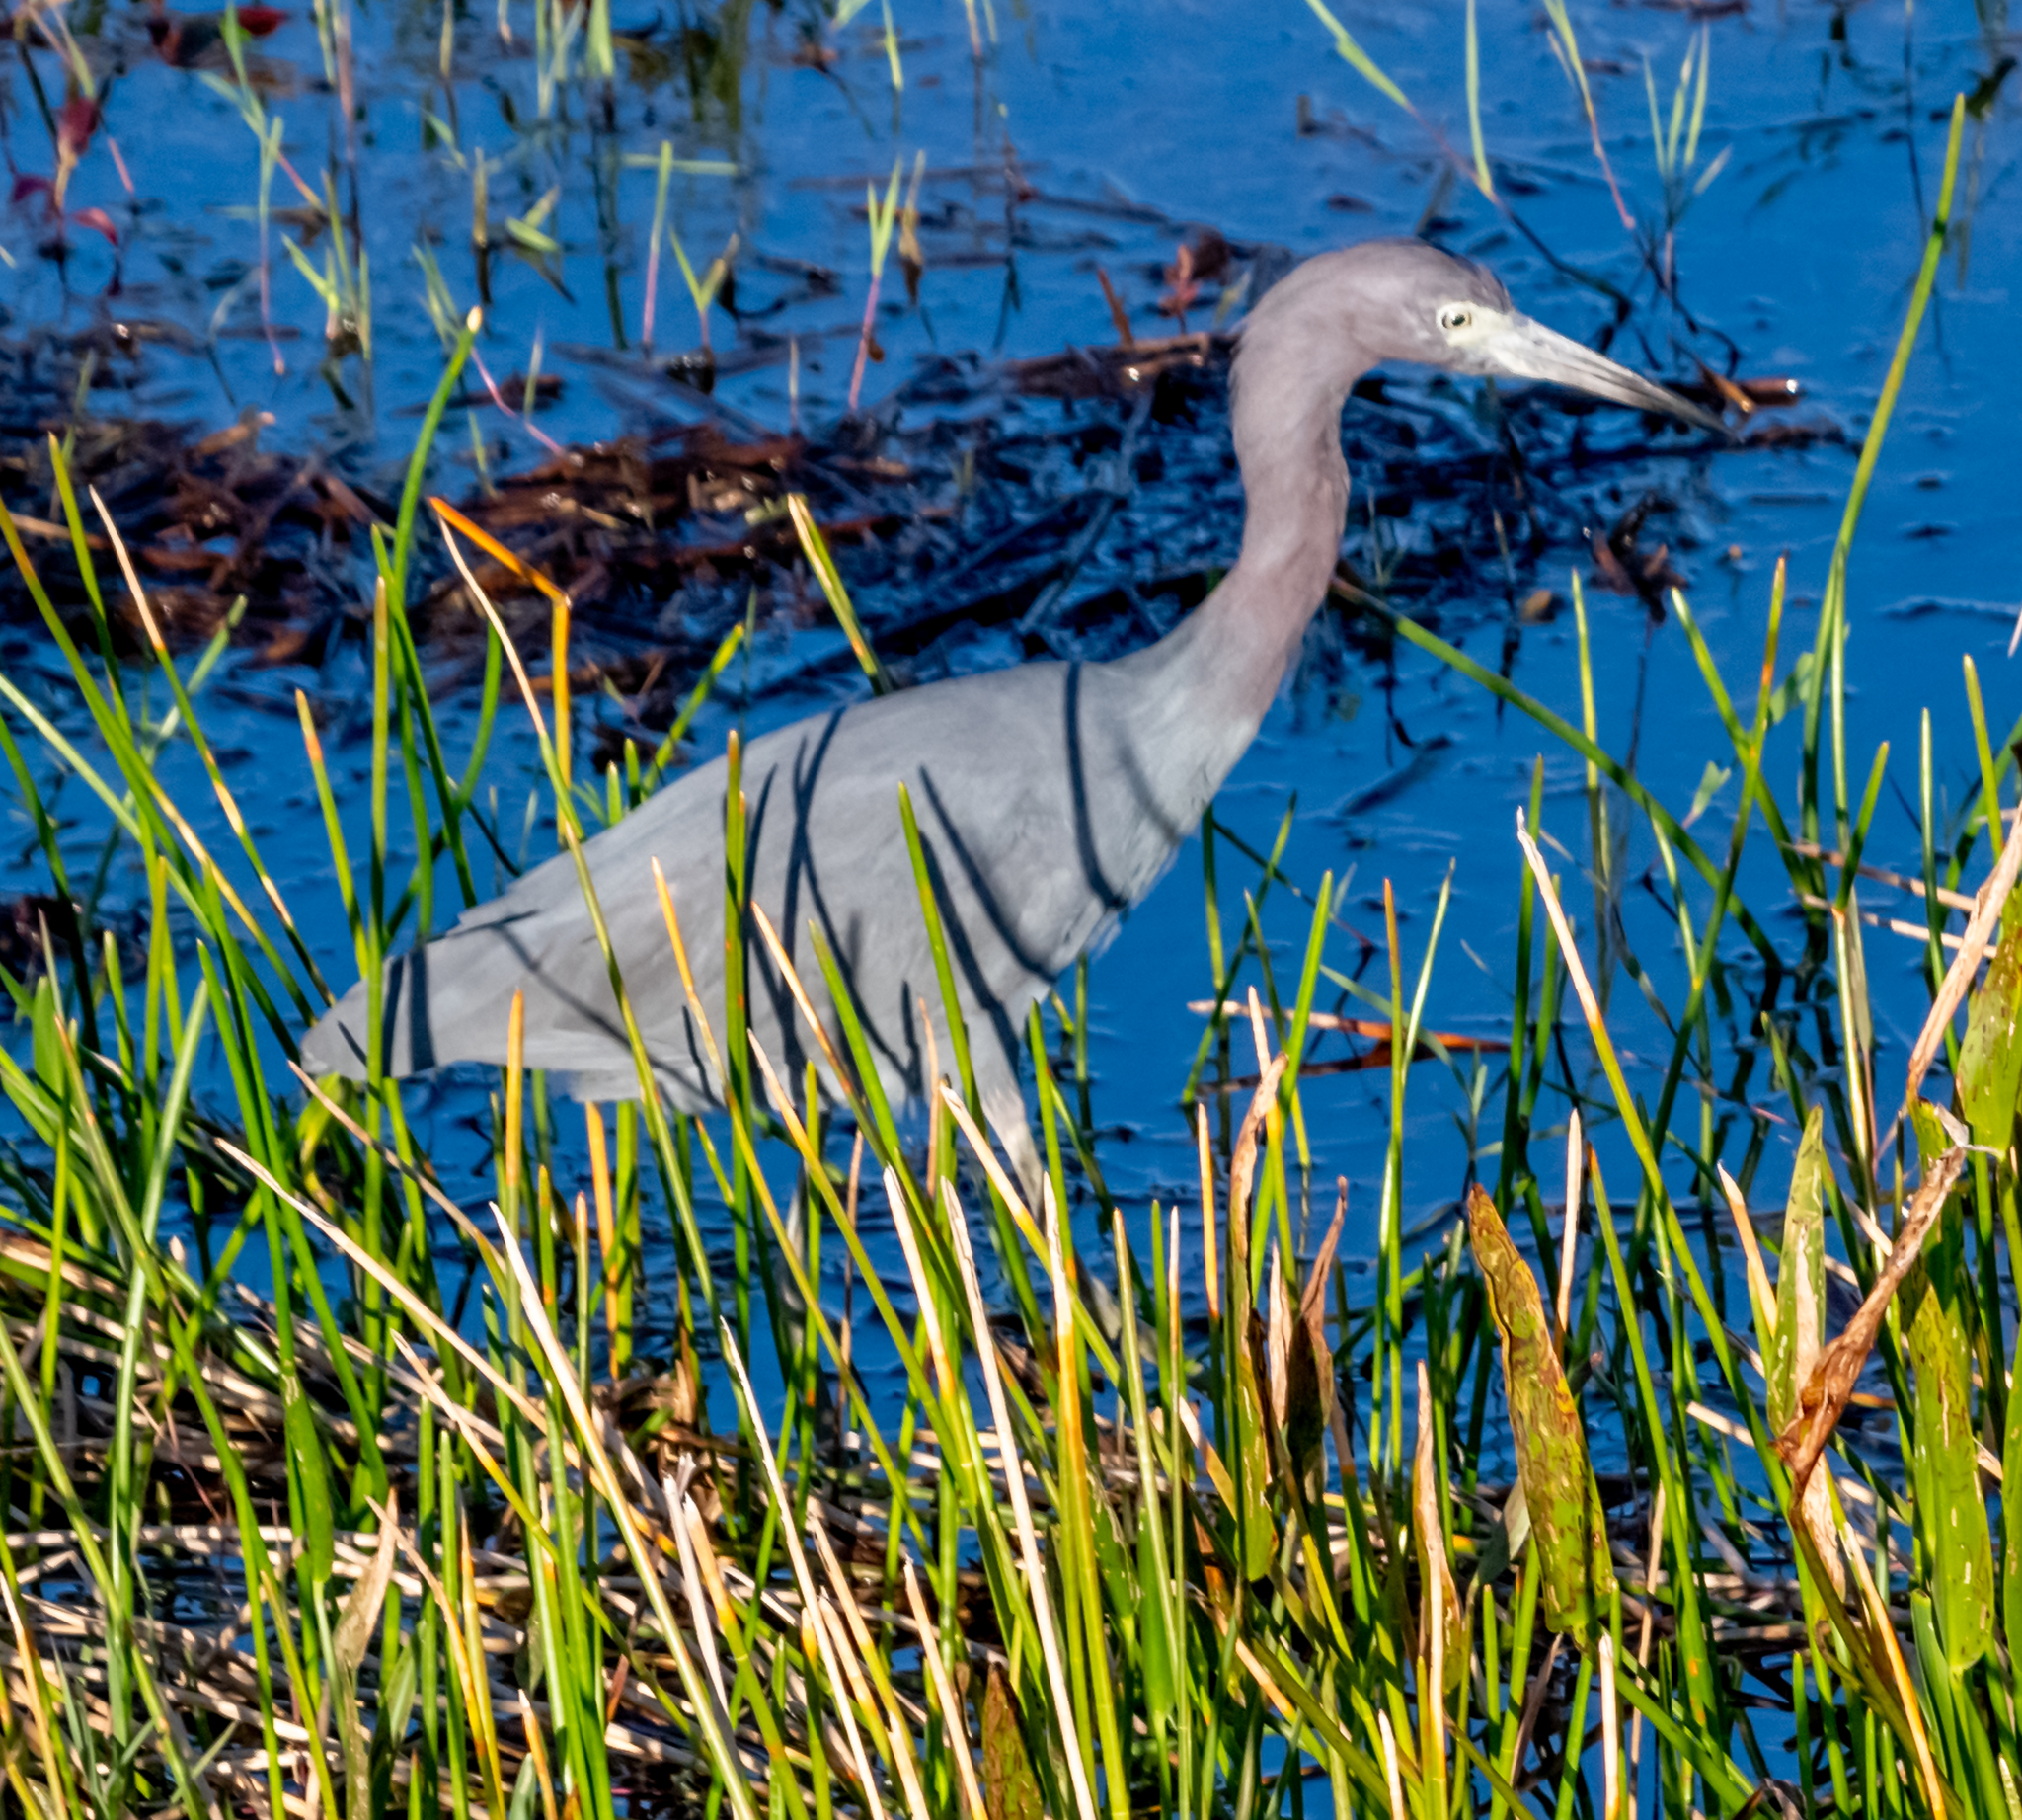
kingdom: Animalia
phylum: Chordata
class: Aves
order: Pelecaniformes
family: Ardeidae
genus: Egretta
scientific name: Egretta caerulea
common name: Little blue heron
